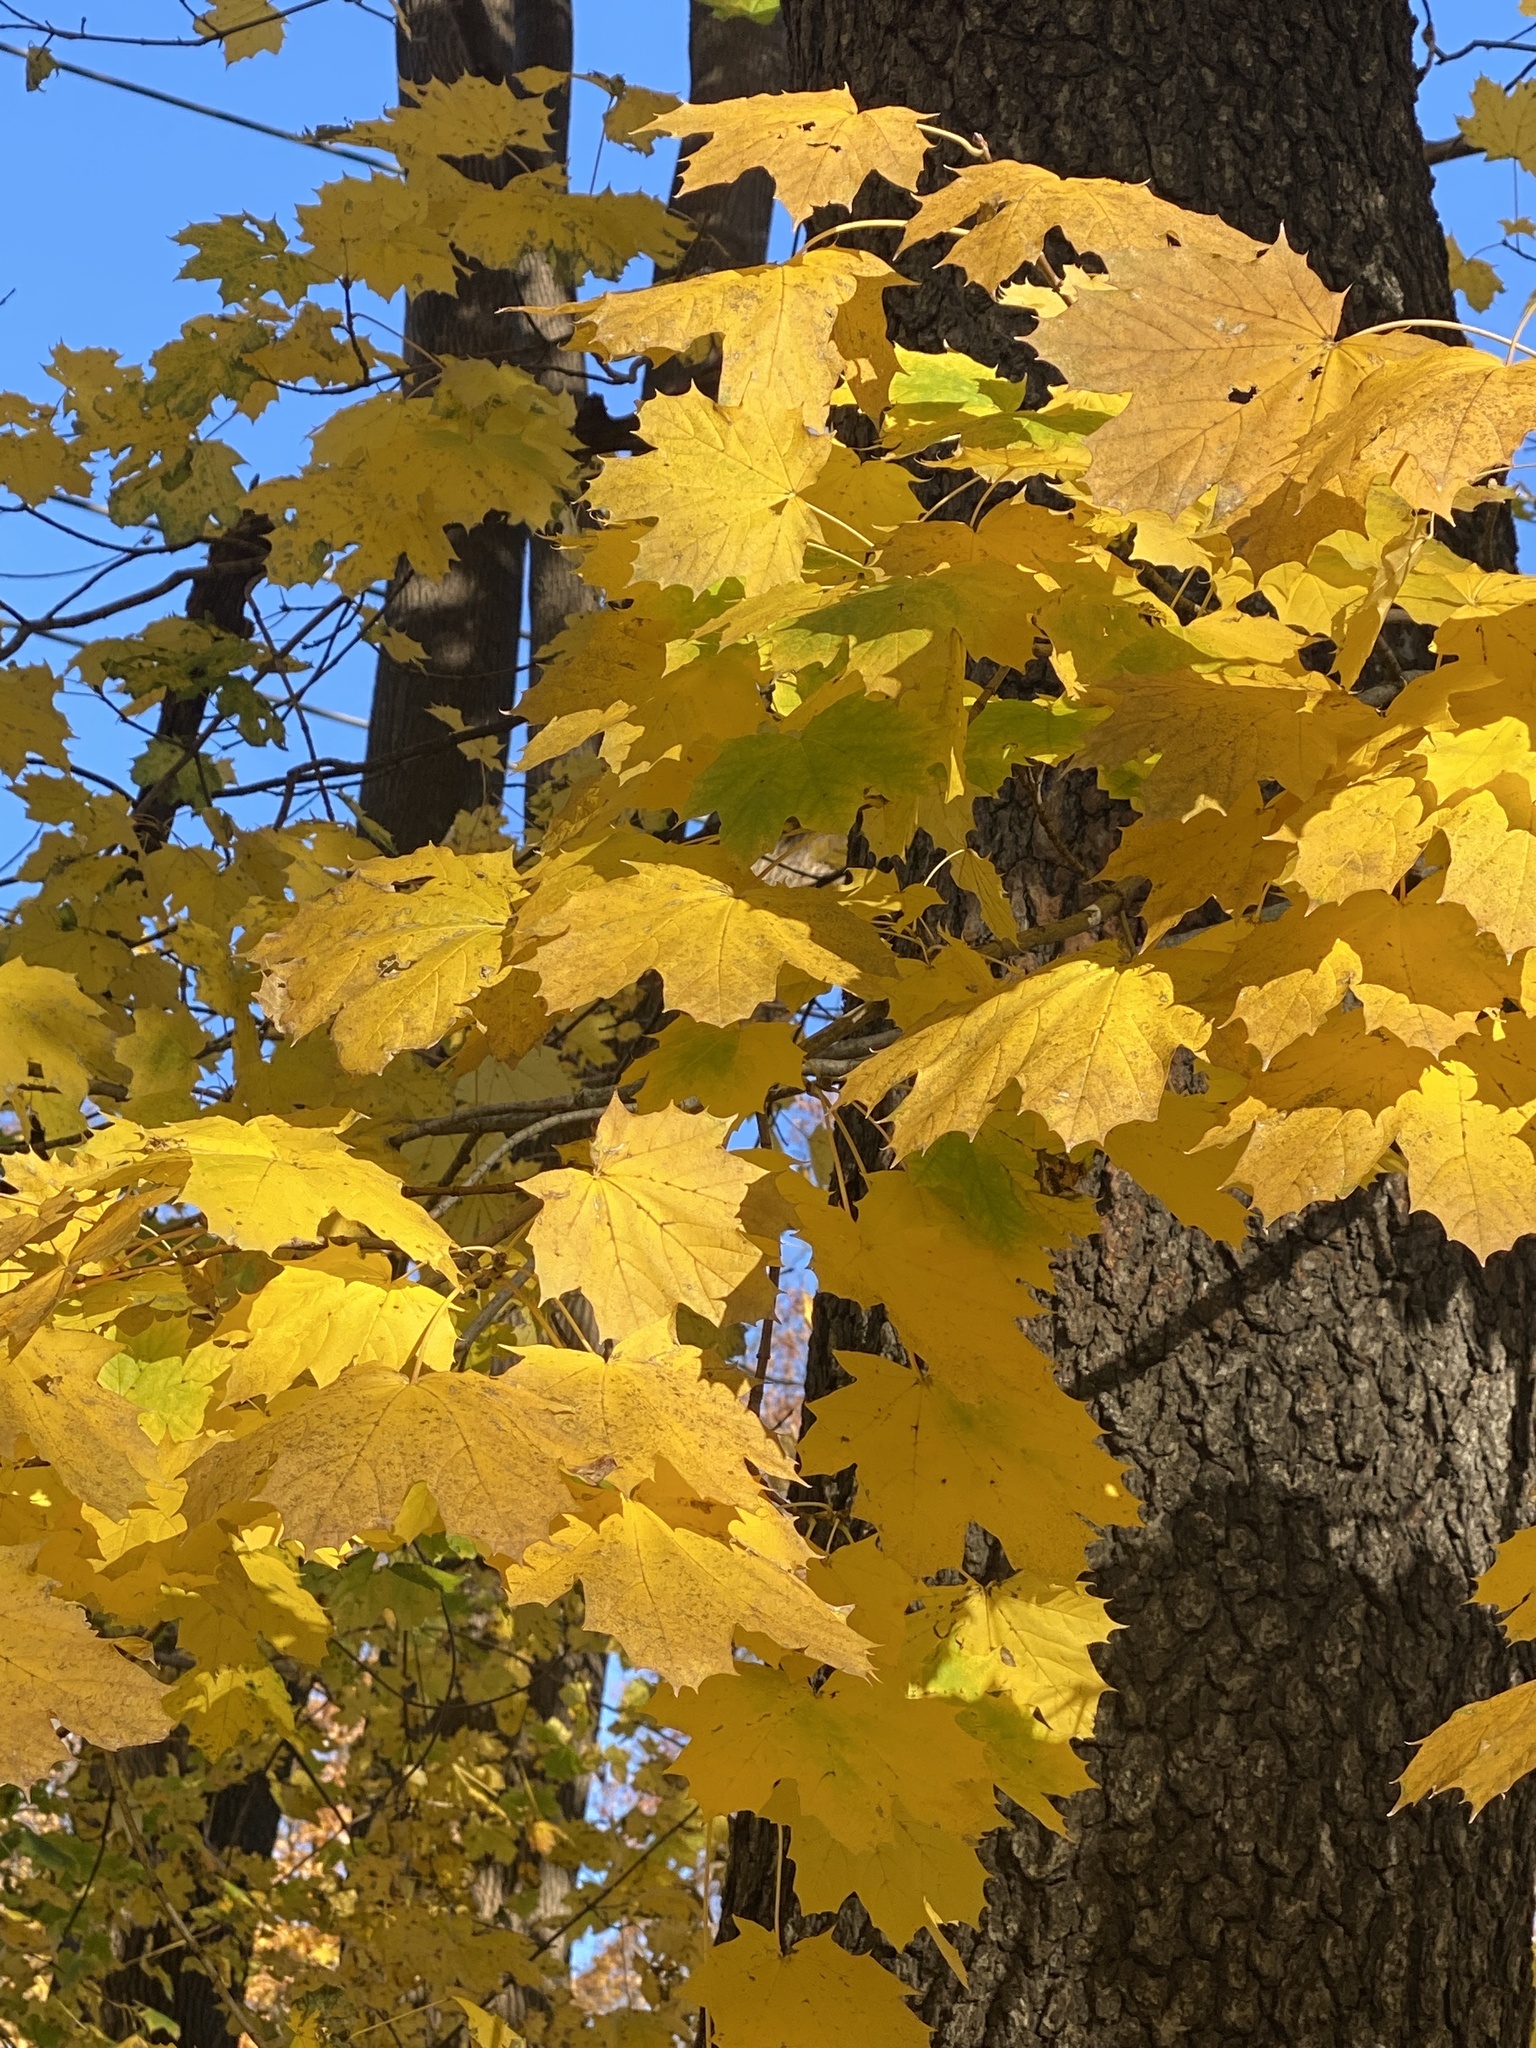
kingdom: Plantae
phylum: Tracheophyta
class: Magnoliopsida
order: Sapindales
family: Sapindaceae
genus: Acer
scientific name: Acer platanoides
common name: Norway maple
